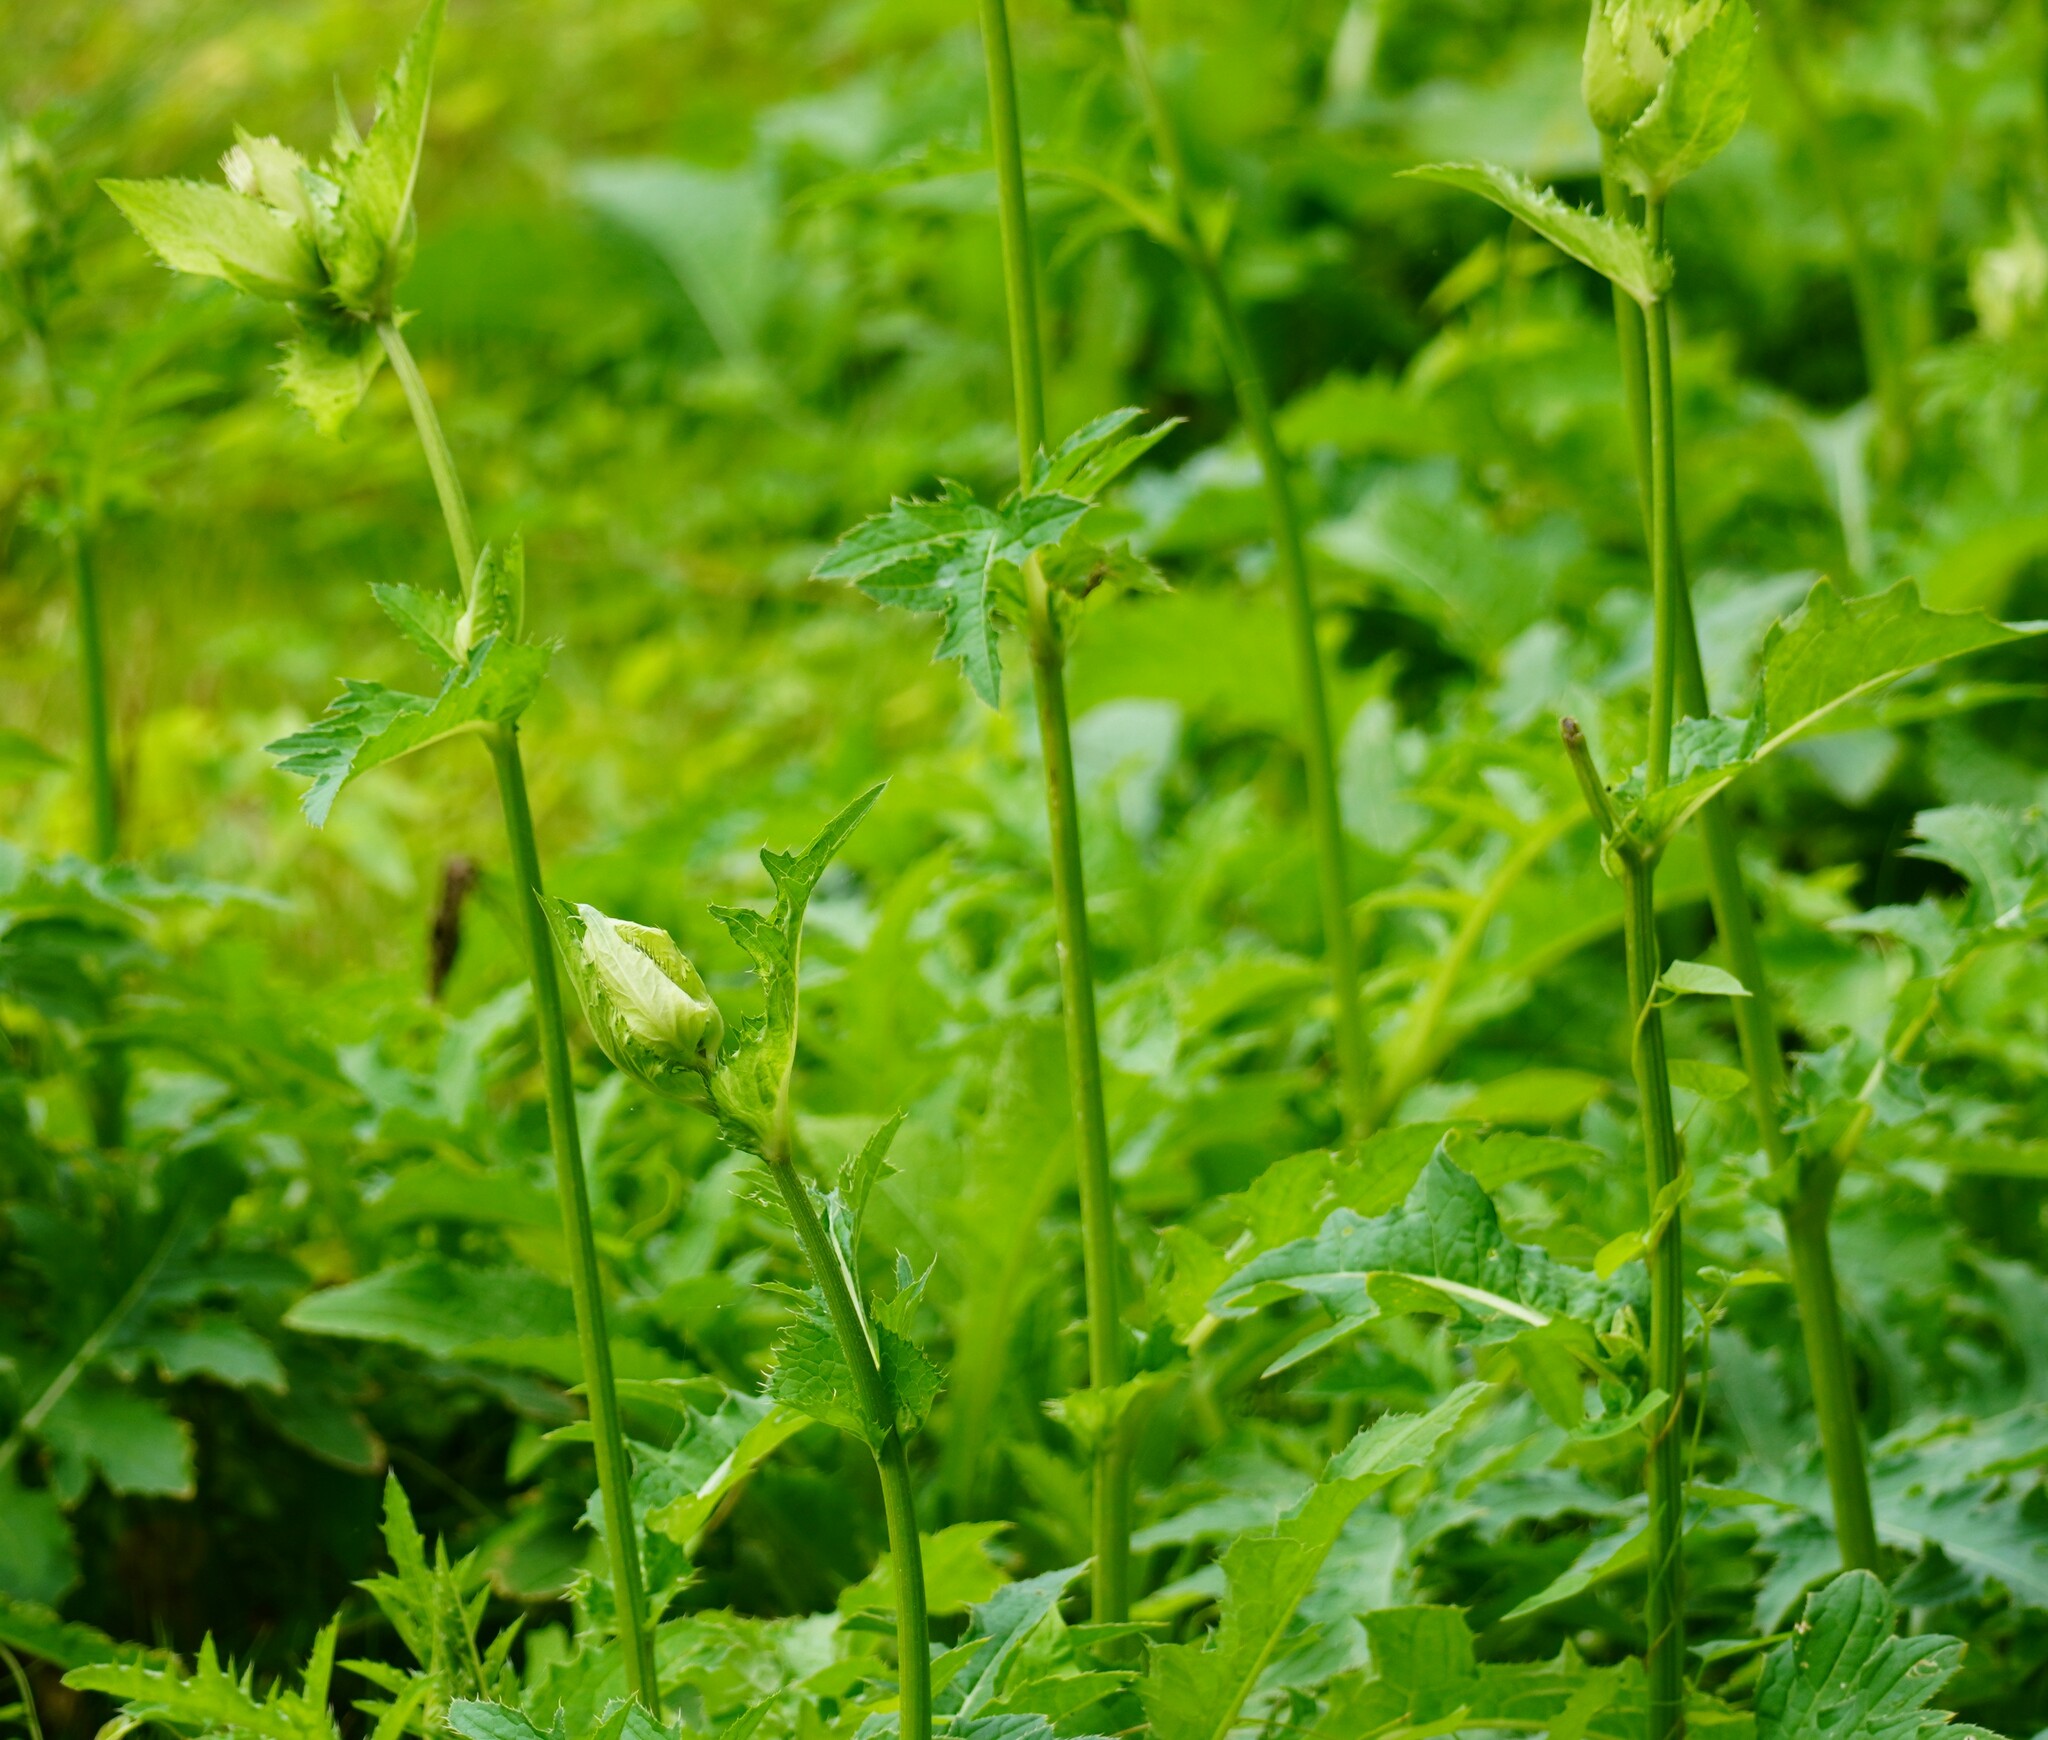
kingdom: Plantae
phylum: Tracheophyta
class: Magnoliopsida
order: Asterales
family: Asteraceae
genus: Cirsium
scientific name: Cirsium oleraceum
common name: Cabbage thistle
